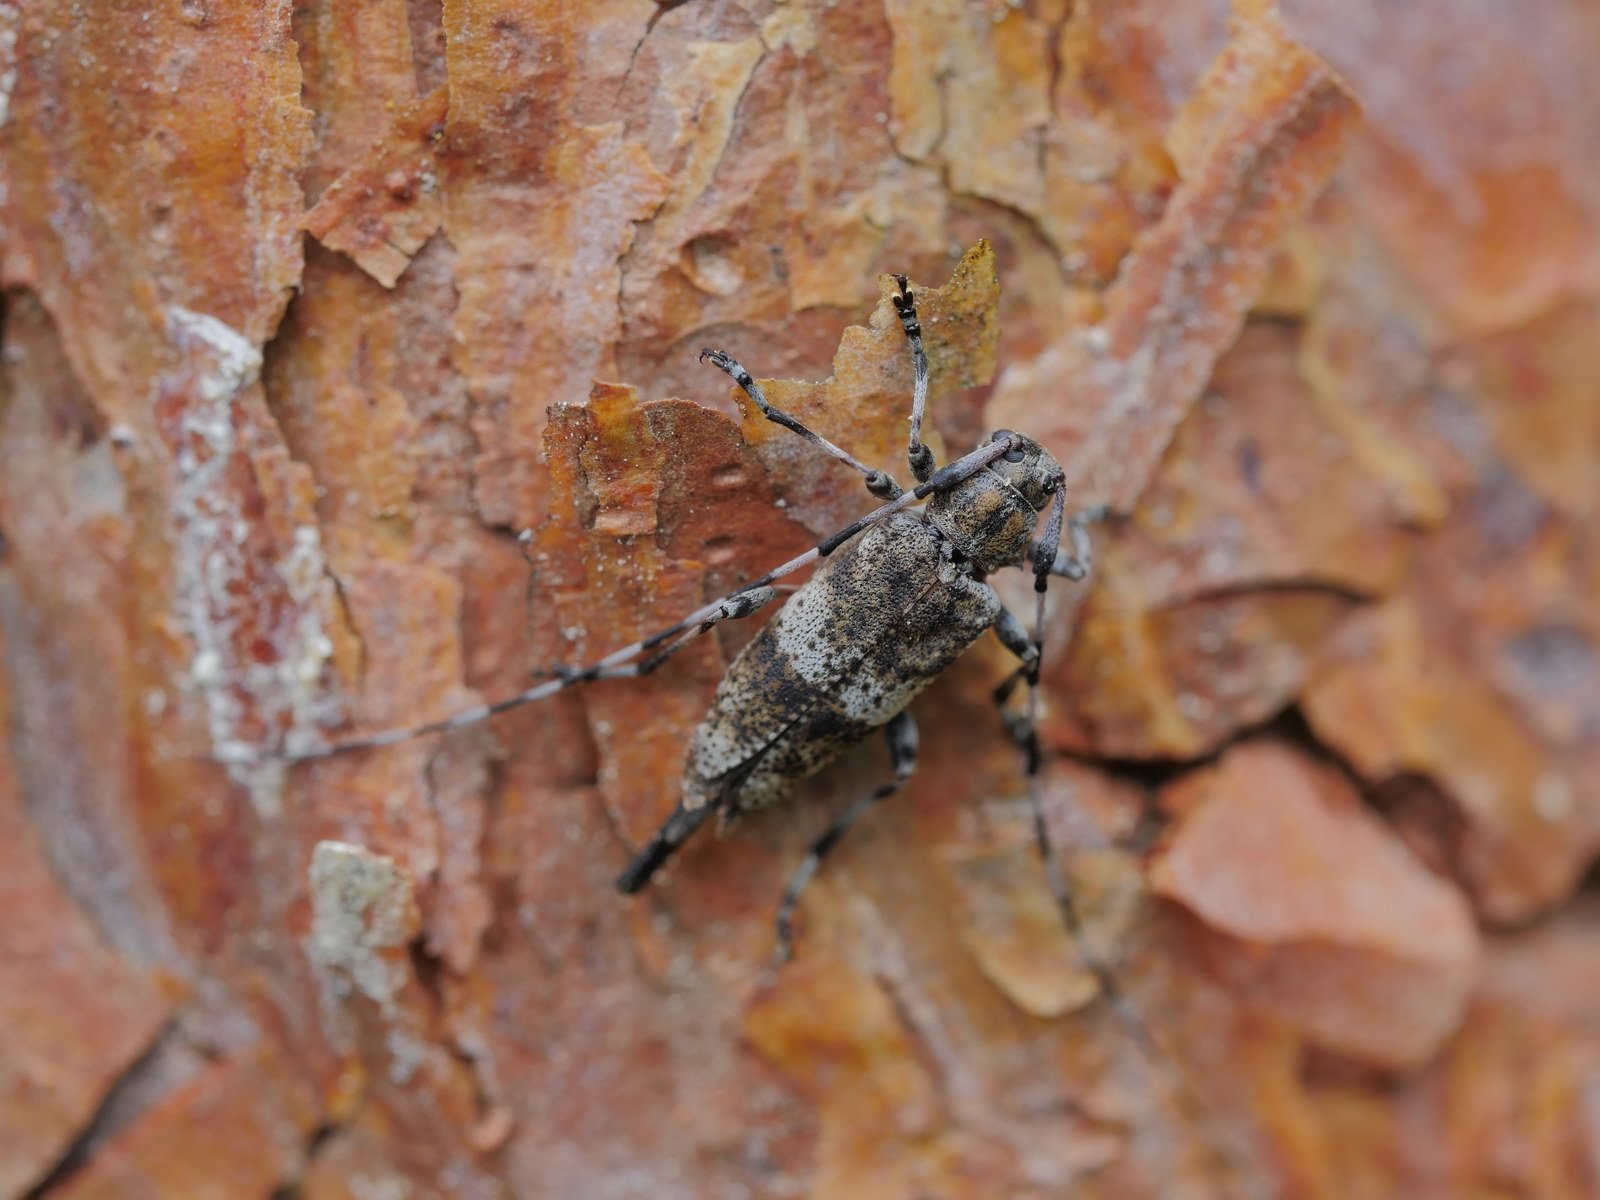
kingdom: Animalia
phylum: Arthropoda
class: Insecta
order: Coleoptera
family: Cerambycidae
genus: Acanthocinus
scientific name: Acanthocinus griseus
